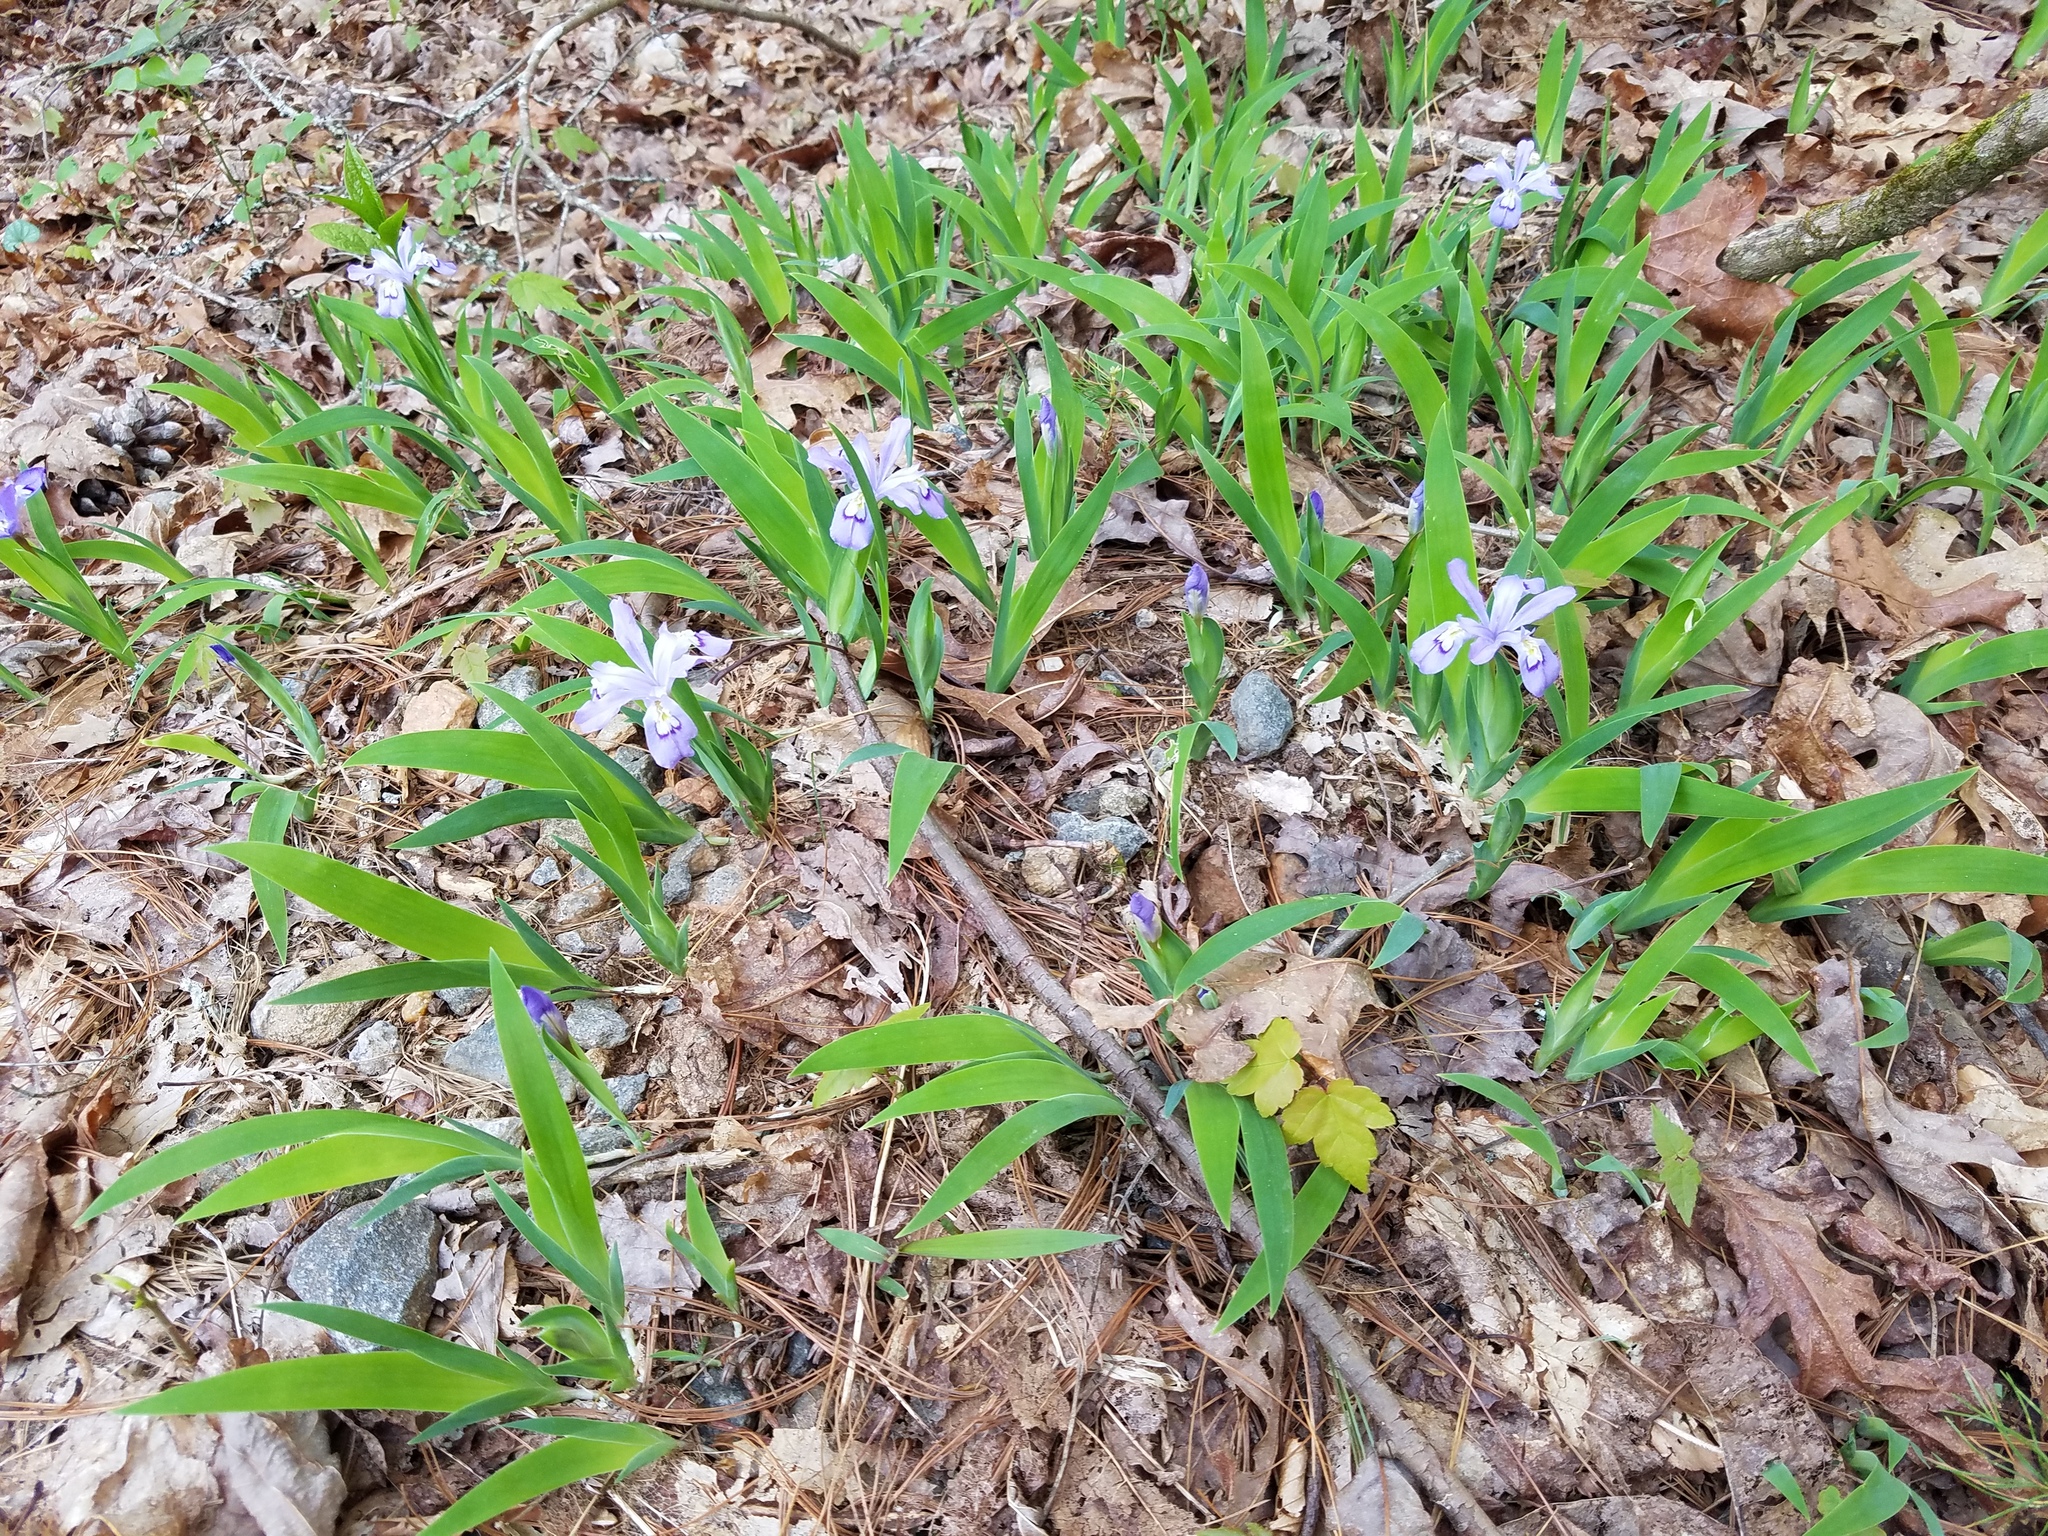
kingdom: Plantae
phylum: Tracheophyta
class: Liliopsida
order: Asparagales
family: Iridaceae
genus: Iris
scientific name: Iris cristata
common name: Crested iris
